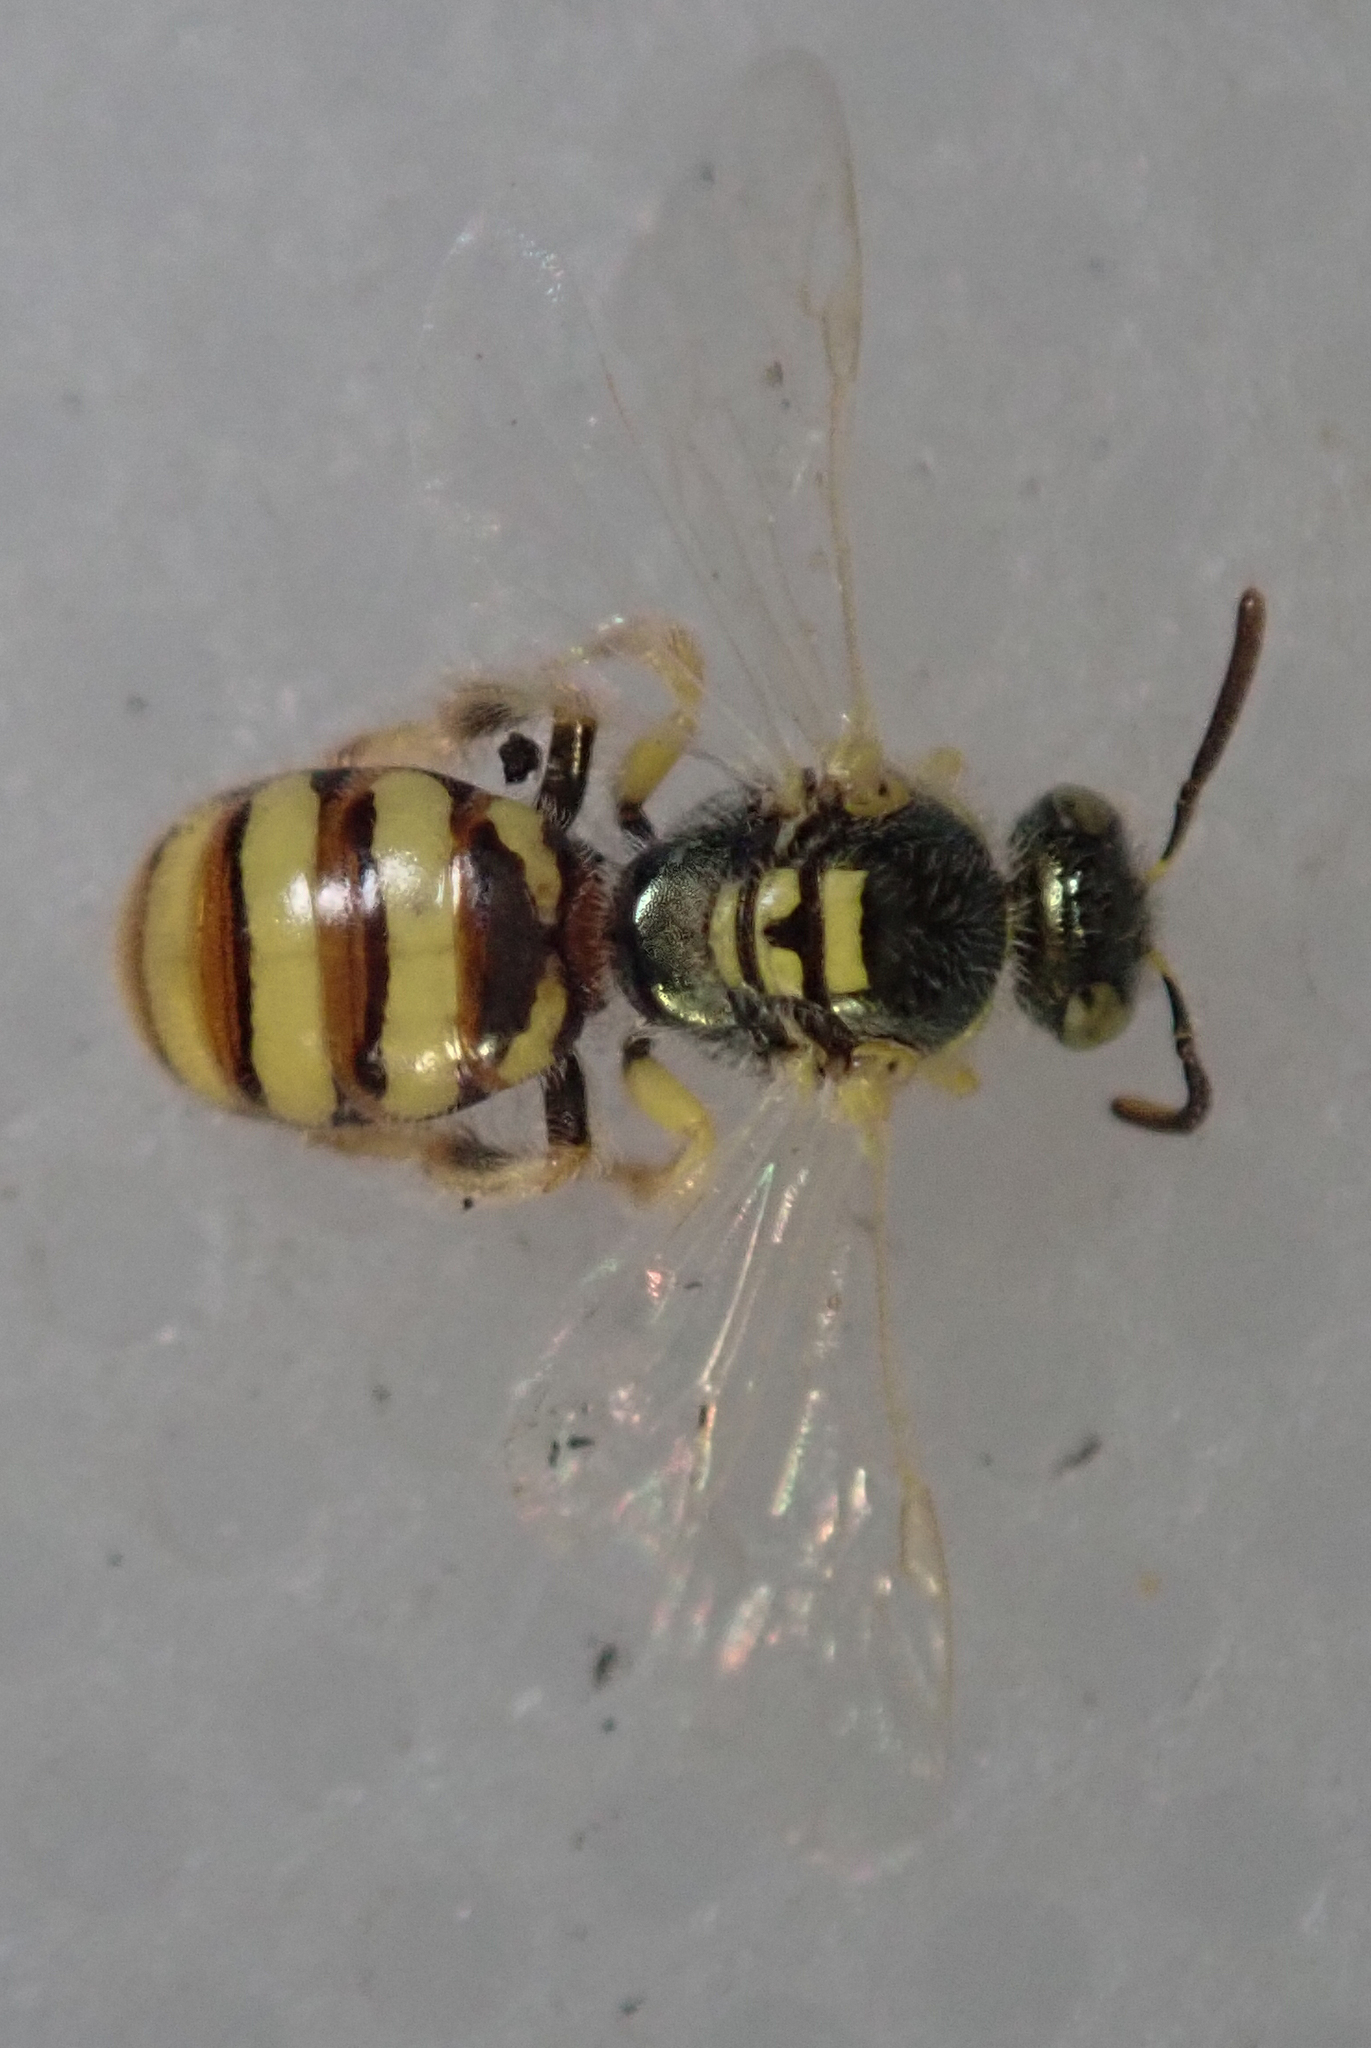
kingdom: Animalia
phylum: Arthropoda
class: Insecta
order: Hymenoptera
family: Halictidae
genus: Ceylalictus
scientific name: Ceylalictus muiri
